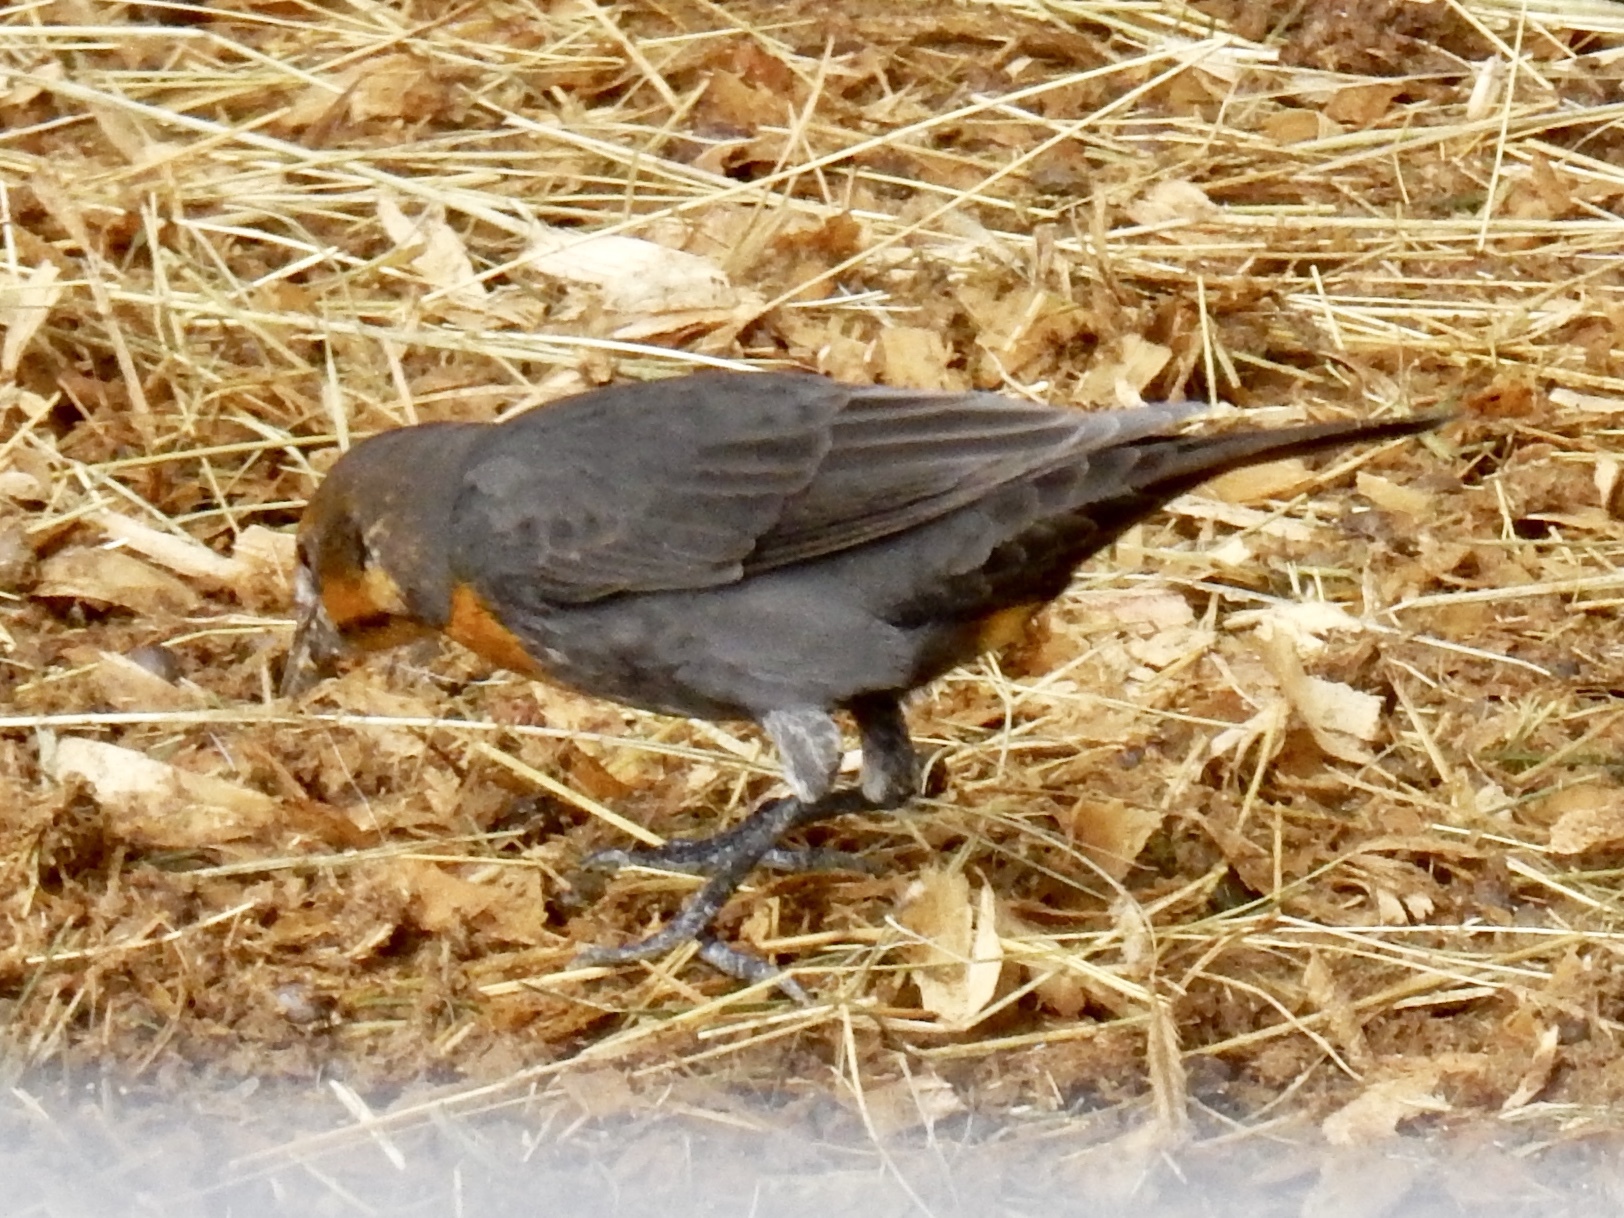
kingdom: Animalia
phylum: Chordata
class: Aves
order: Passeriformes
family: Icteridae
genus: Xanthocephalus
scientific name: Xanthocephalus xanthocephalus
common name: Yellow-headed blackbird
